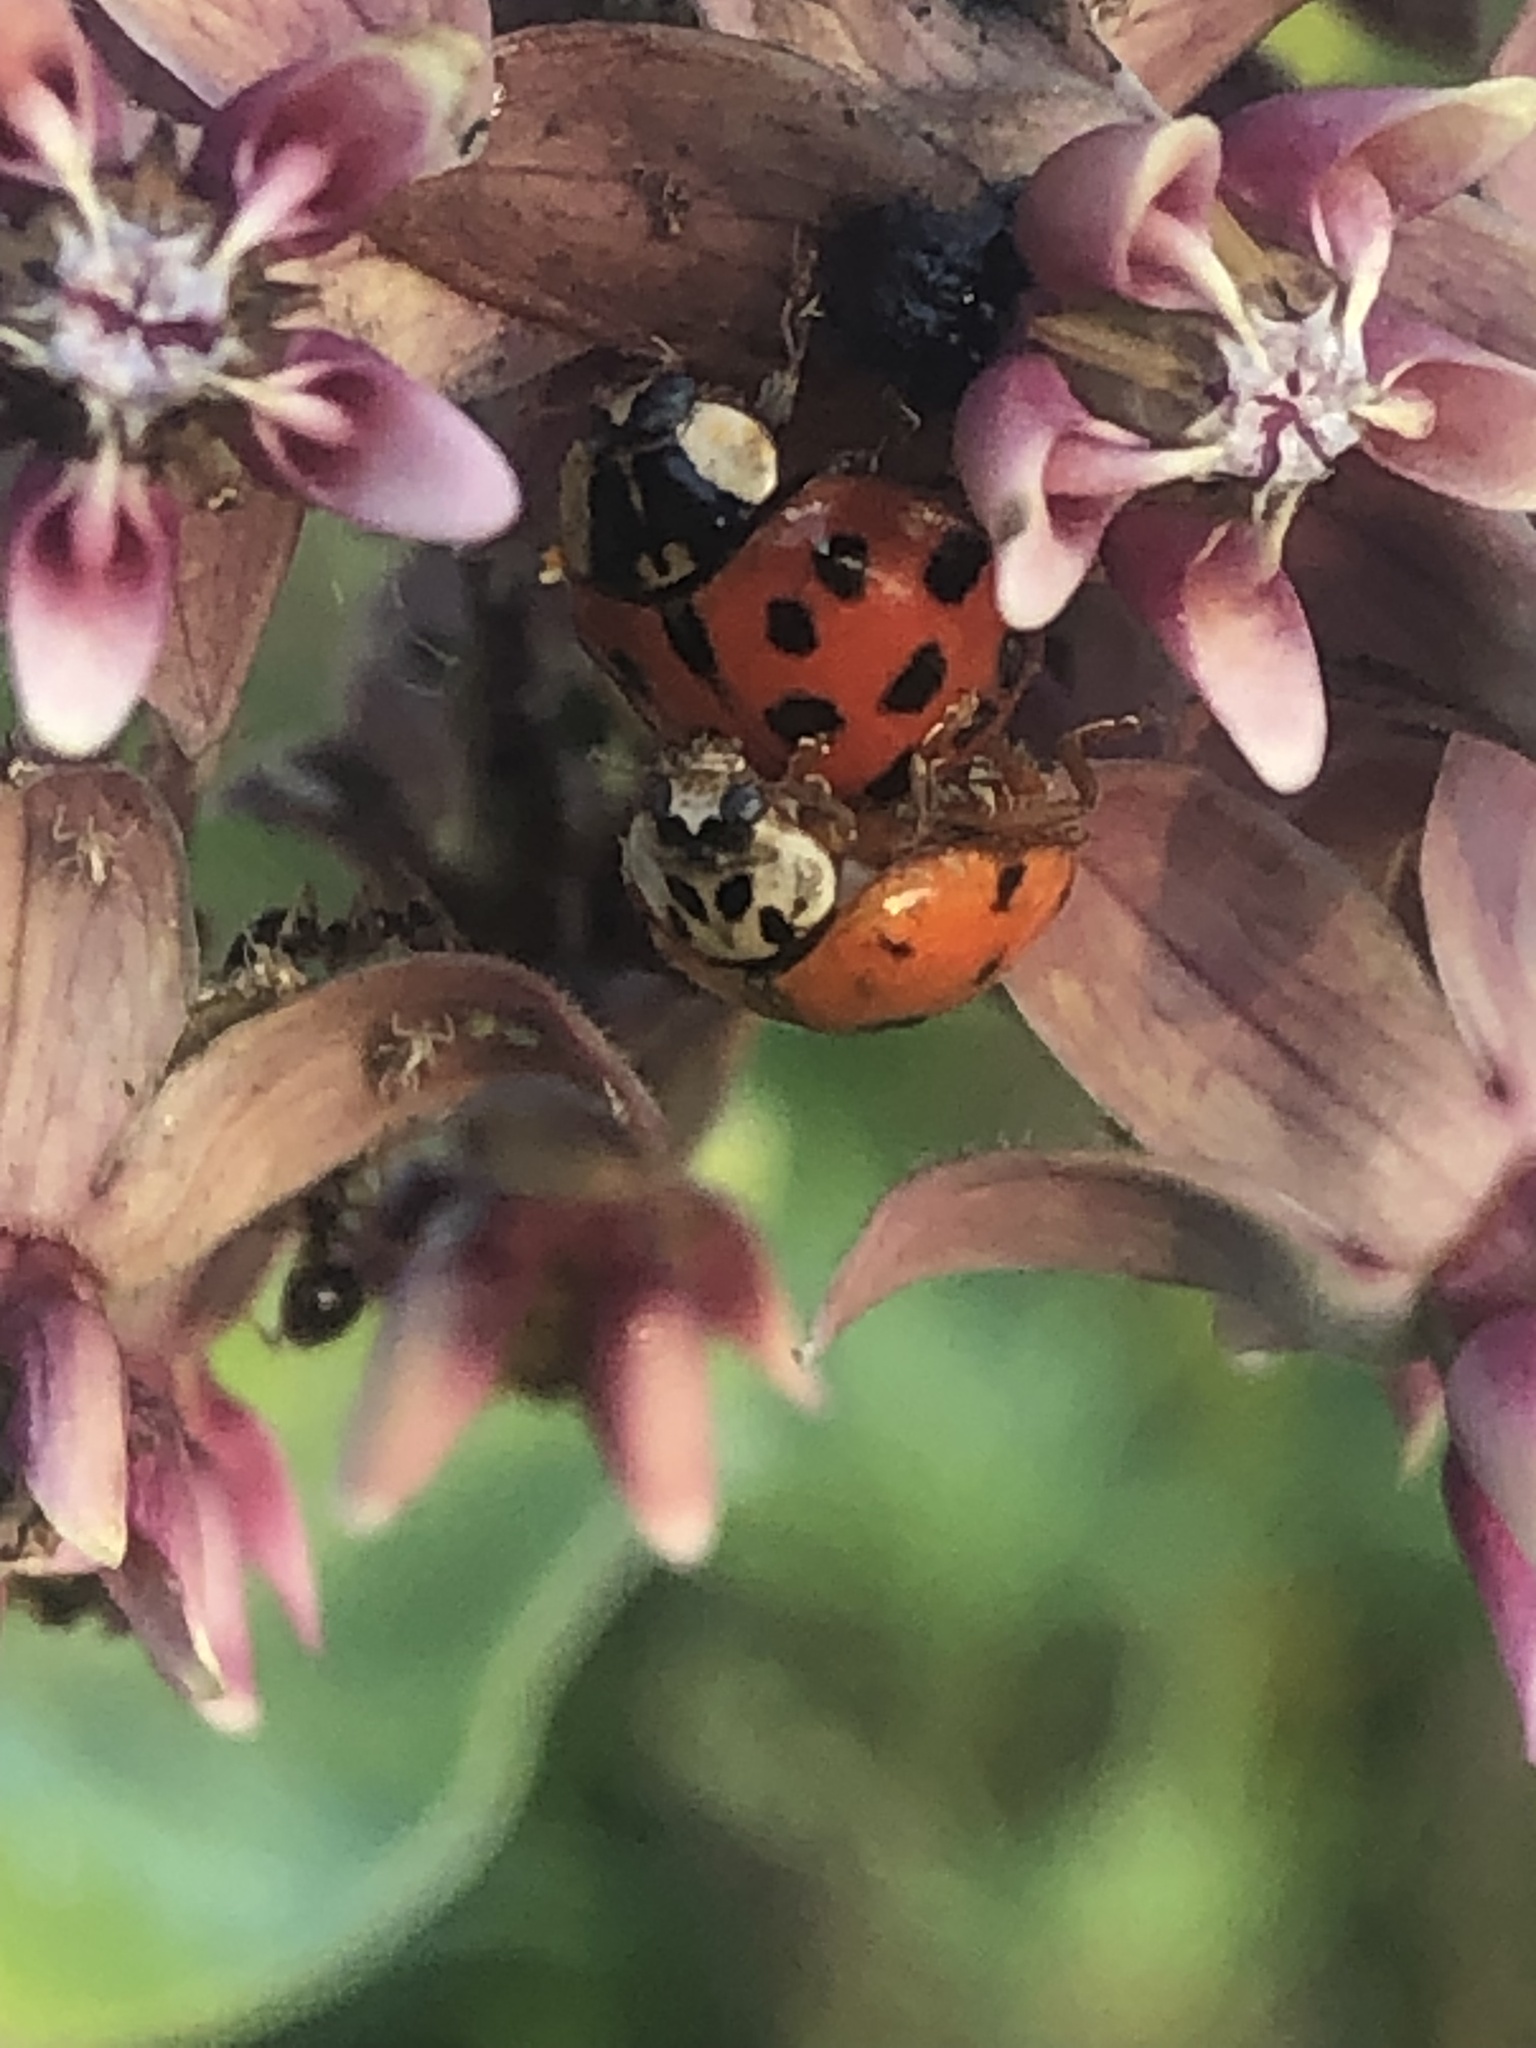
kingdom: Animalia
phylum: Arthropoda
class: Insecta
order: Coleoptera
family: Coccinellidae
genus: Harmonia
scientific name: Harmonia axyridis
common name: Harlequin ladybird
